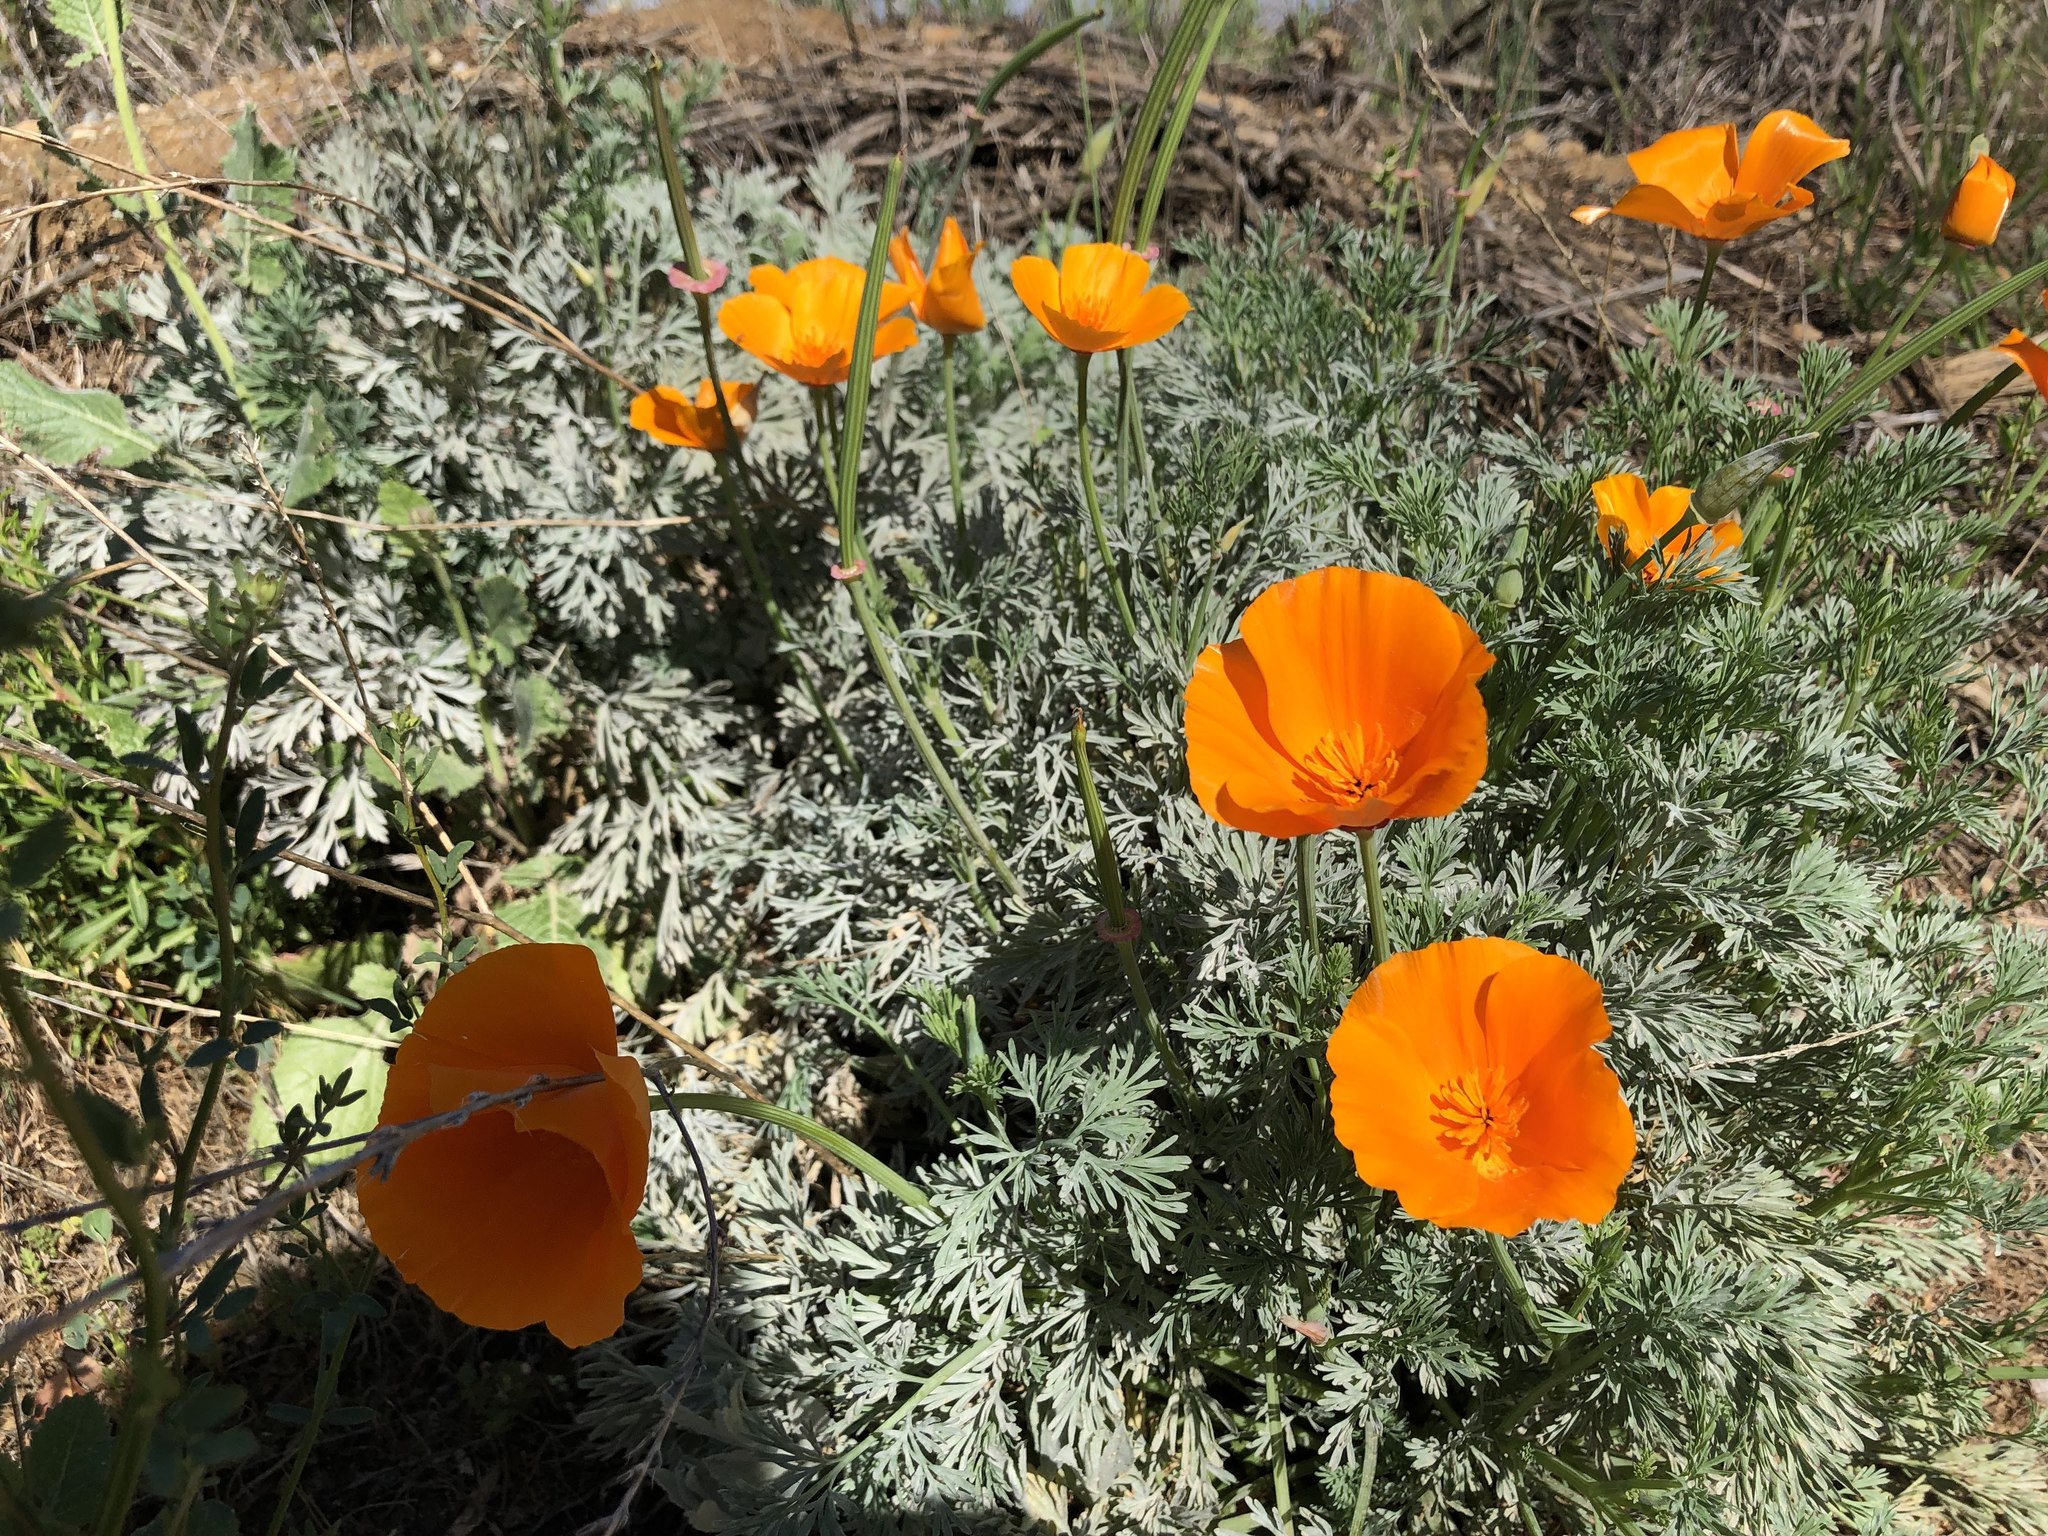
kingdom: Plantae
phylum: Tracheophyta
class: Magnoliopsida
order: Ranunculales
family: Papaveraceae
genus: Eschscholzia
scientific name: Eschscholzia californica
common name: California poppy
